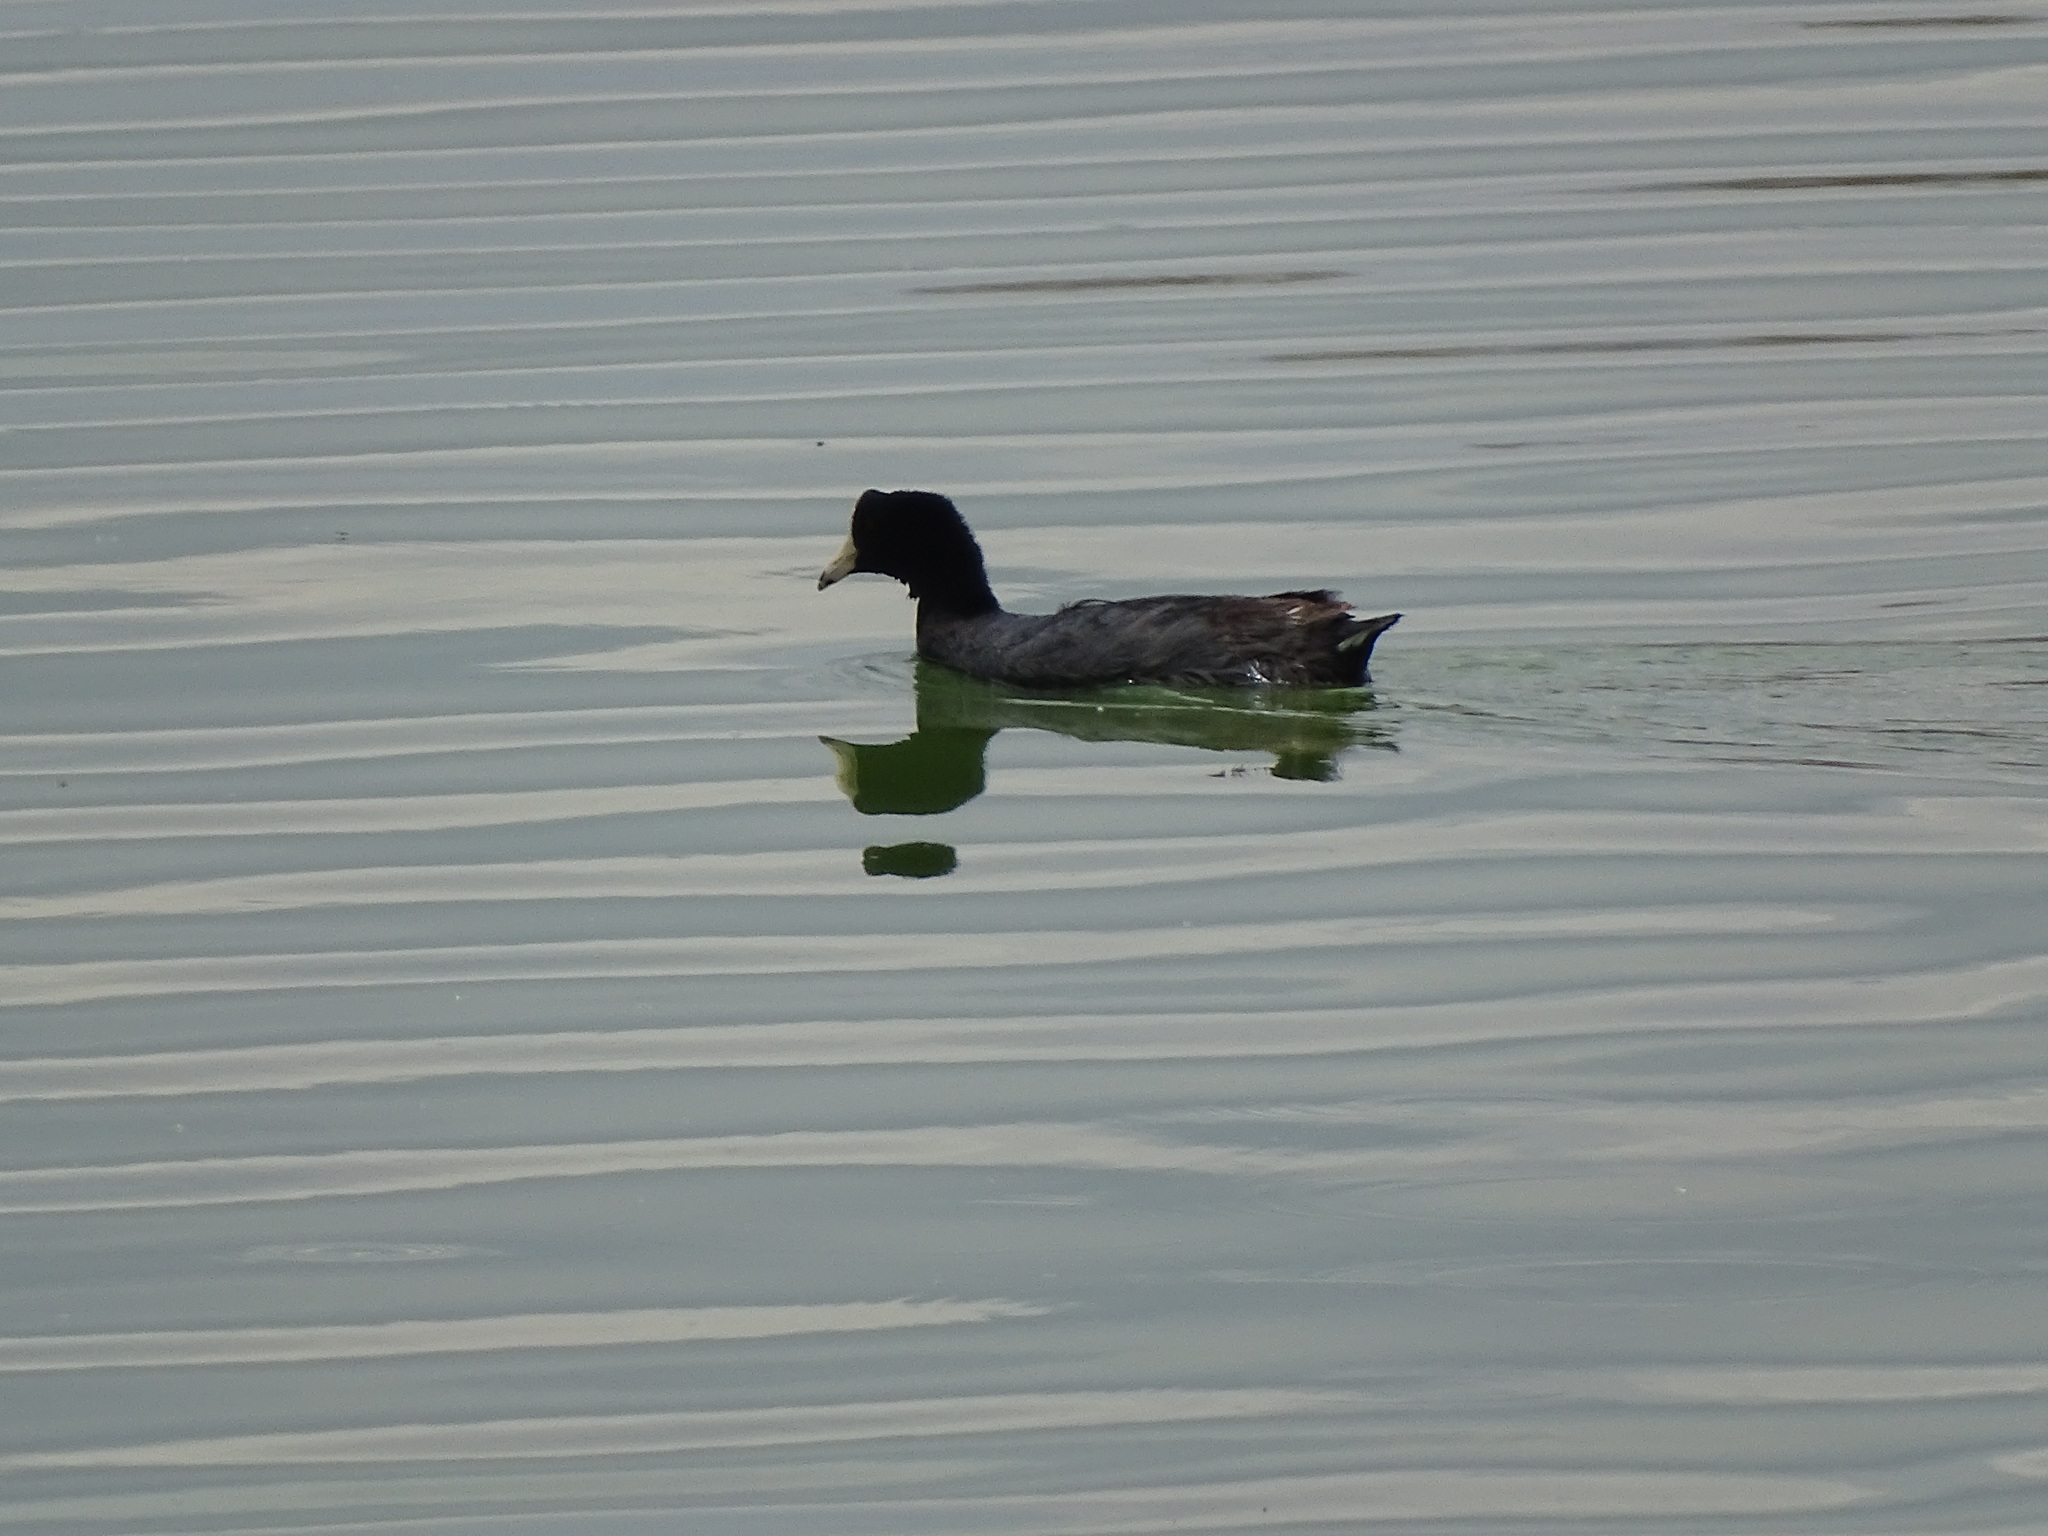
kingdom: Animalia
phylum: Chordata
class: Aves
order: Gruiformes
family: Rallidae
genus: Fulica
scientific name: Fulica americana
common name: American coot
